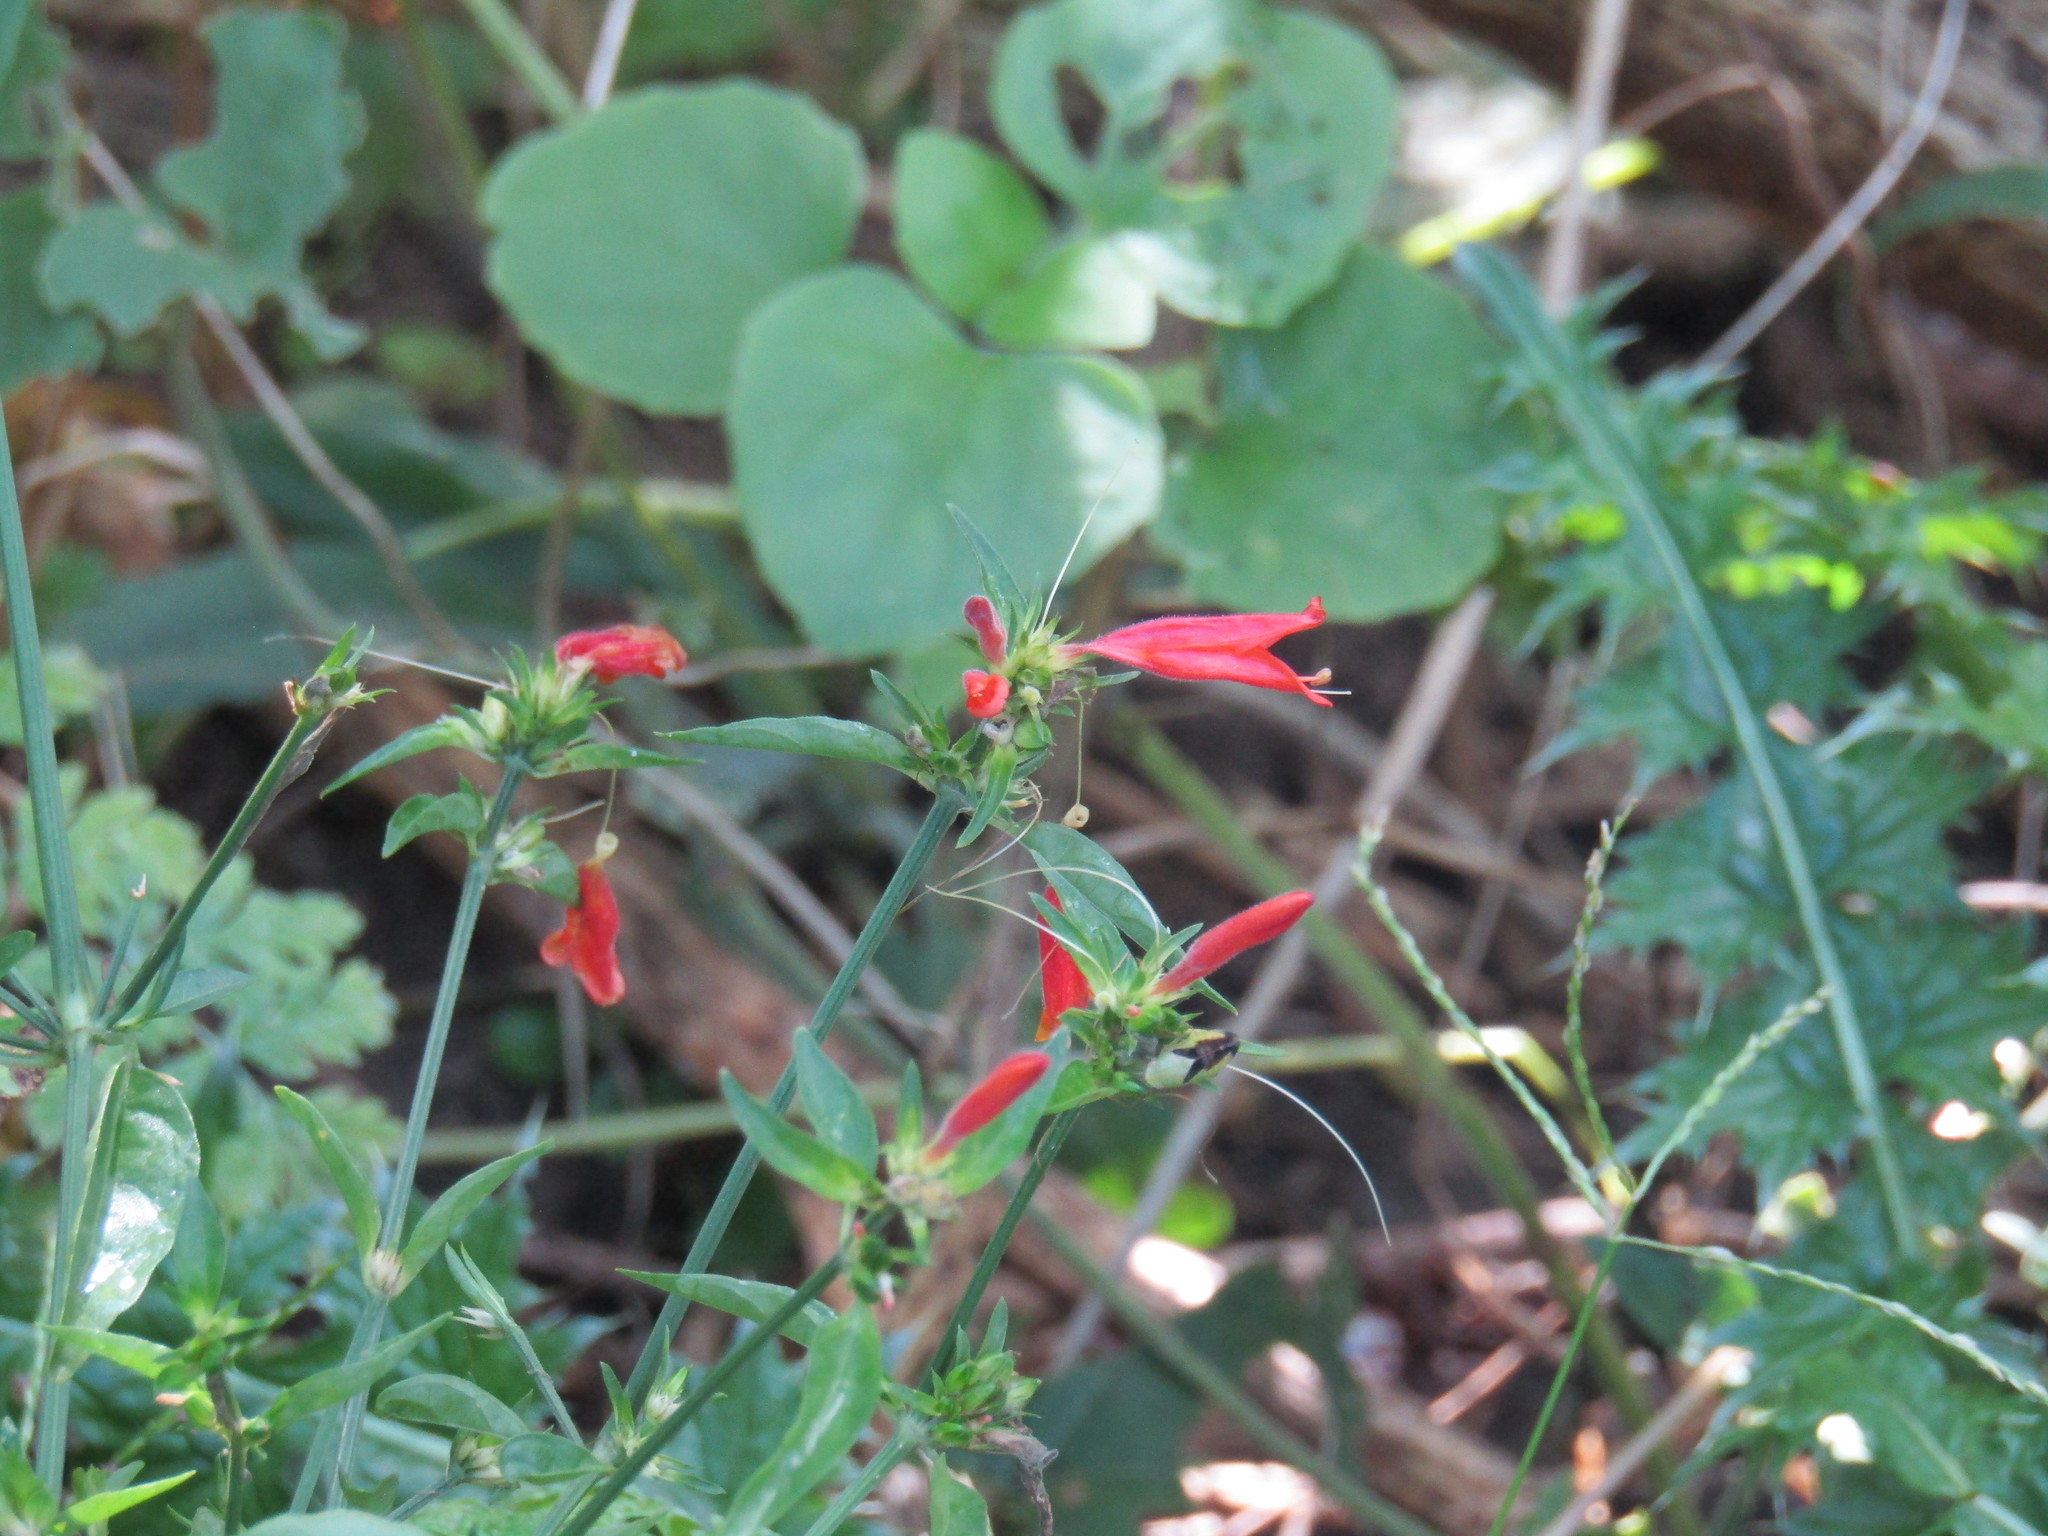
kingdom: Plantae
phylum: Tracheophyta
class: Magnoliopsida
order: Lamiales
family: Acanthaceae
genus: Dicliptera
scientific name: Dicliptera squarrosa
